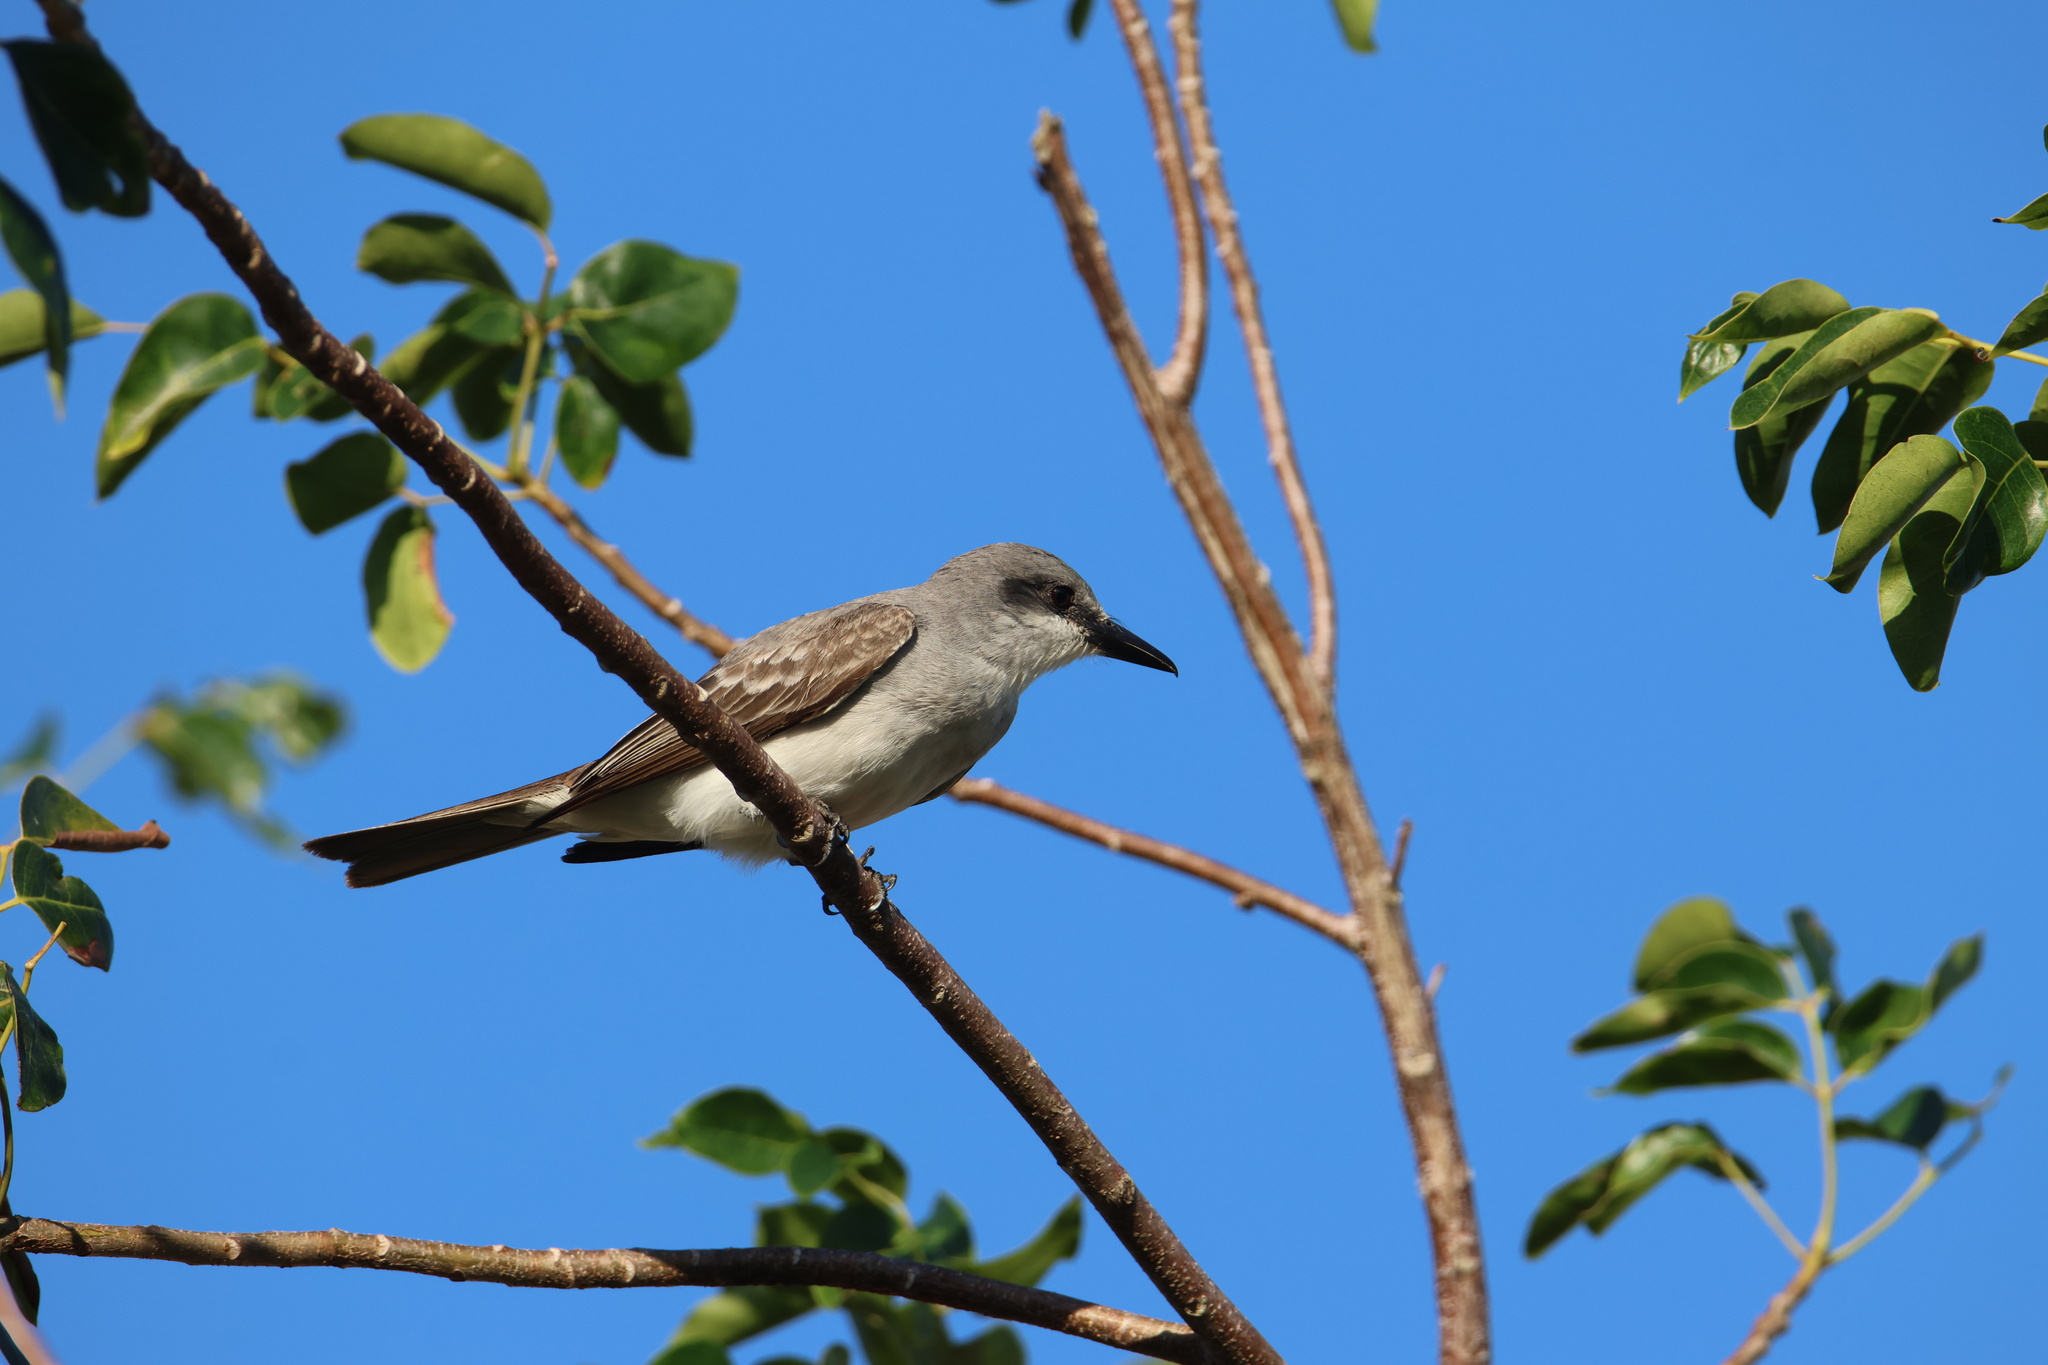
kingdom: Animalia
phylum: Chordata
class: Aves
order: Passeriformes
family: Tyrannidae
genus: Tyrannus
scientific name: Tyrannus dominicensis
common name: Gray kingbird
